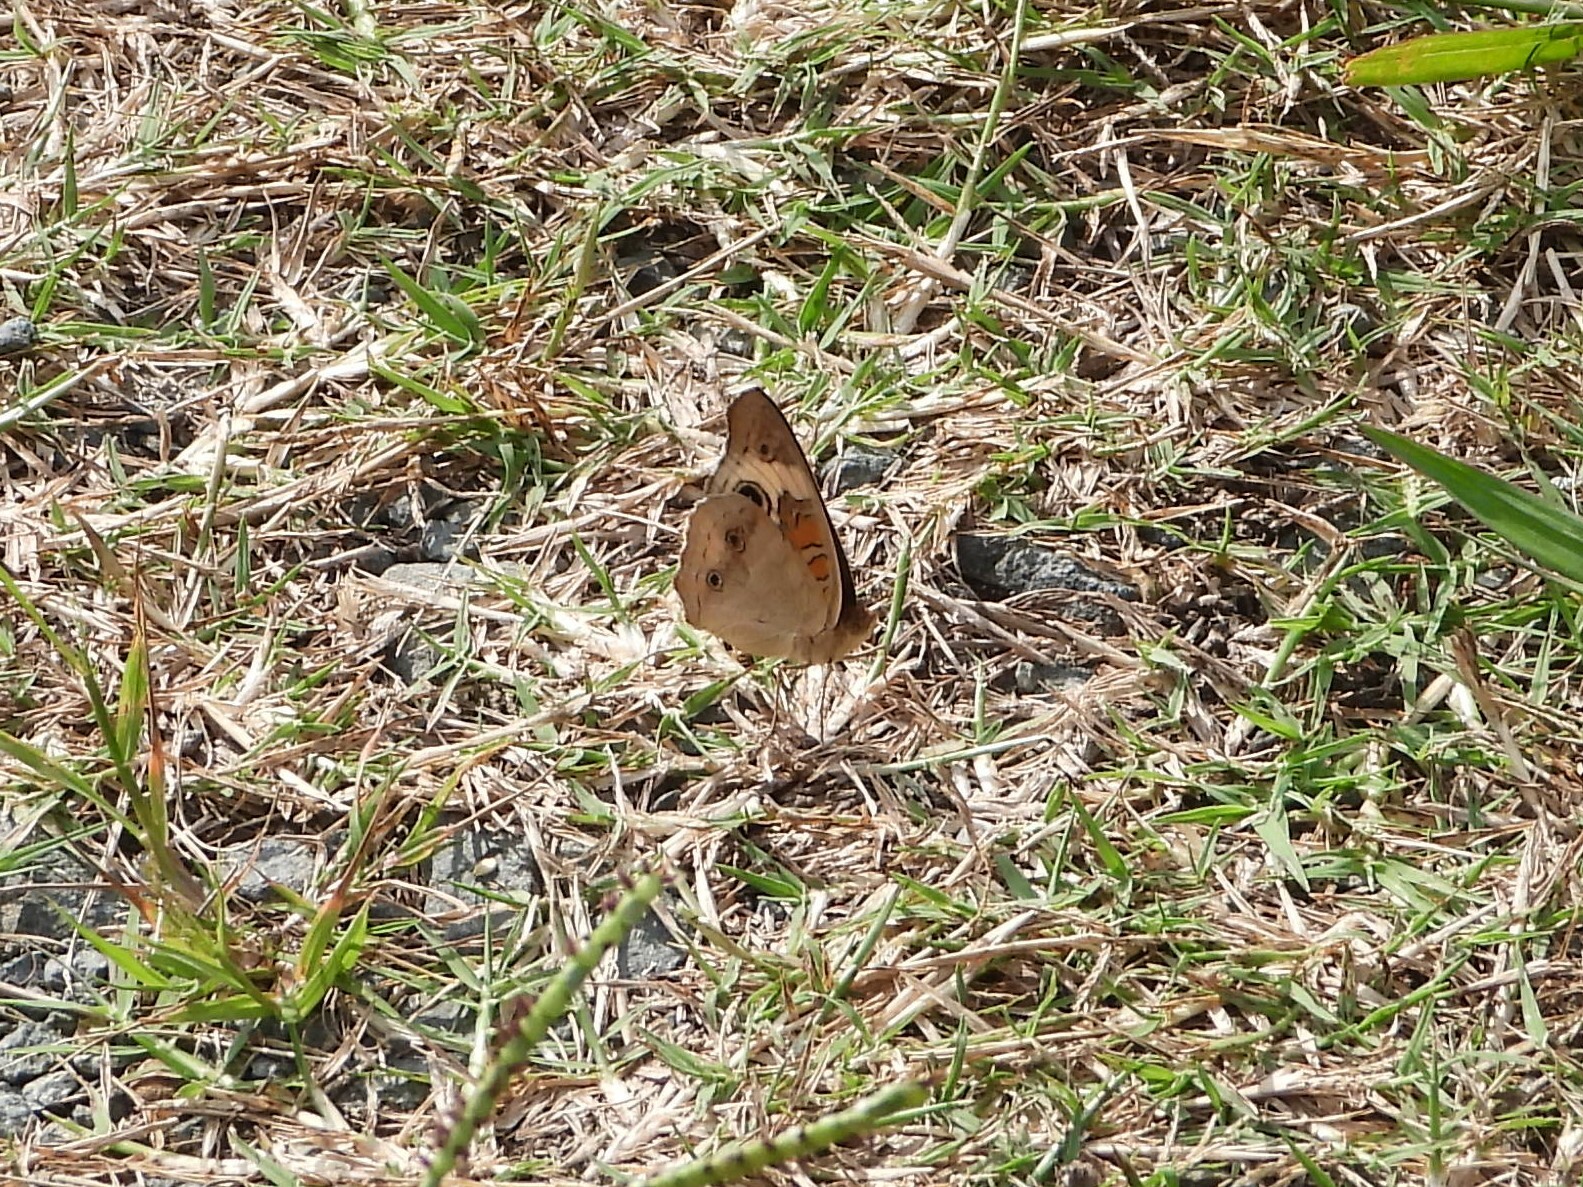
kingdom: Animalia
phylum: Arthropoda
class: Insecta
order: Lepidoptera
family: Nymphalidae
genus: Junonia
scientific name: Junonia coenia
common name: Common buckeye
